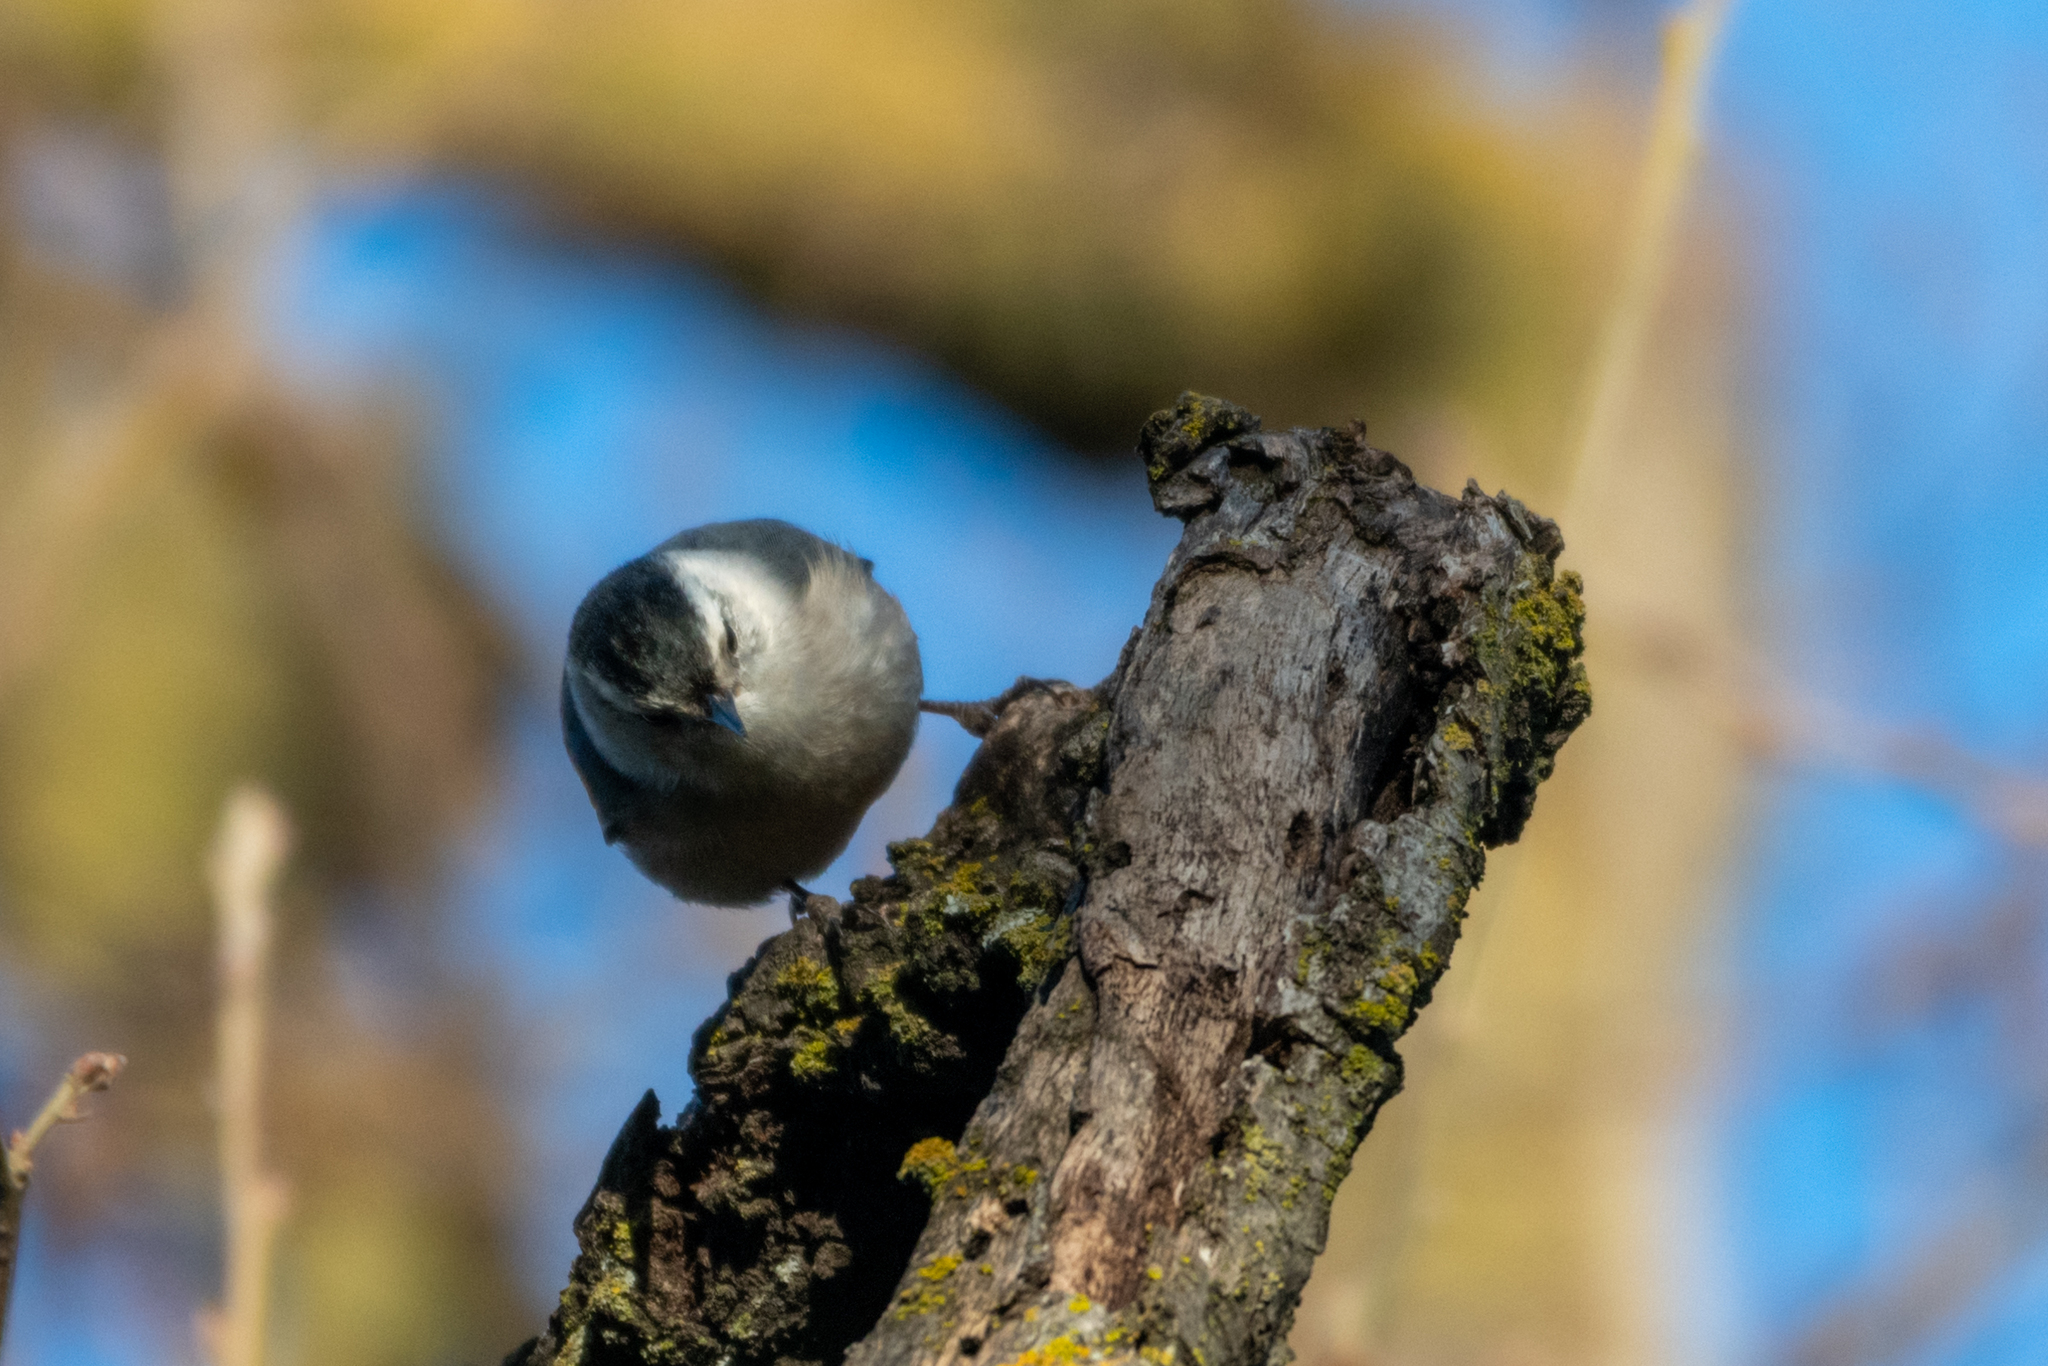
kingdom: Animalia
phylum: Chordata
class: Aves
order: Passeriformes
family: Sittidae
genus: Sitta
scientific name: Sitta carolinensis
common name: White-breasted nuthatch
